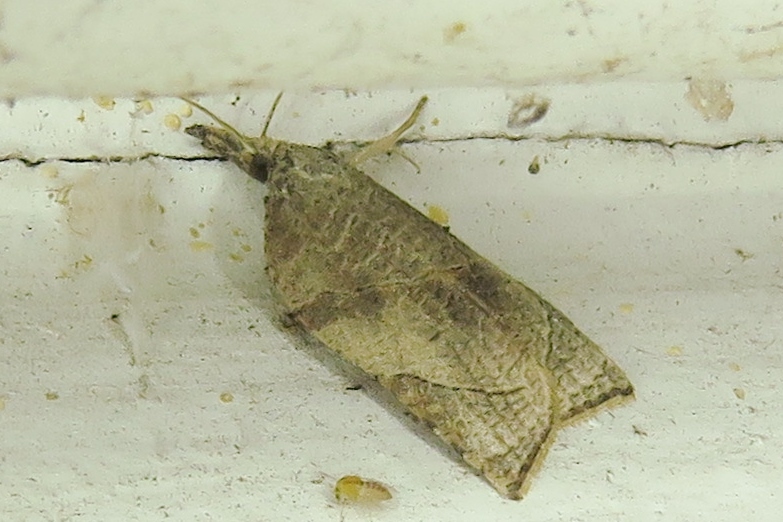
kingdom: Animalia
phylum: Arthropoda
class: Insecta
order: Lepidoptera
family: Tortricidae
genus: Platynota
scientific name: Platynota rostrana
